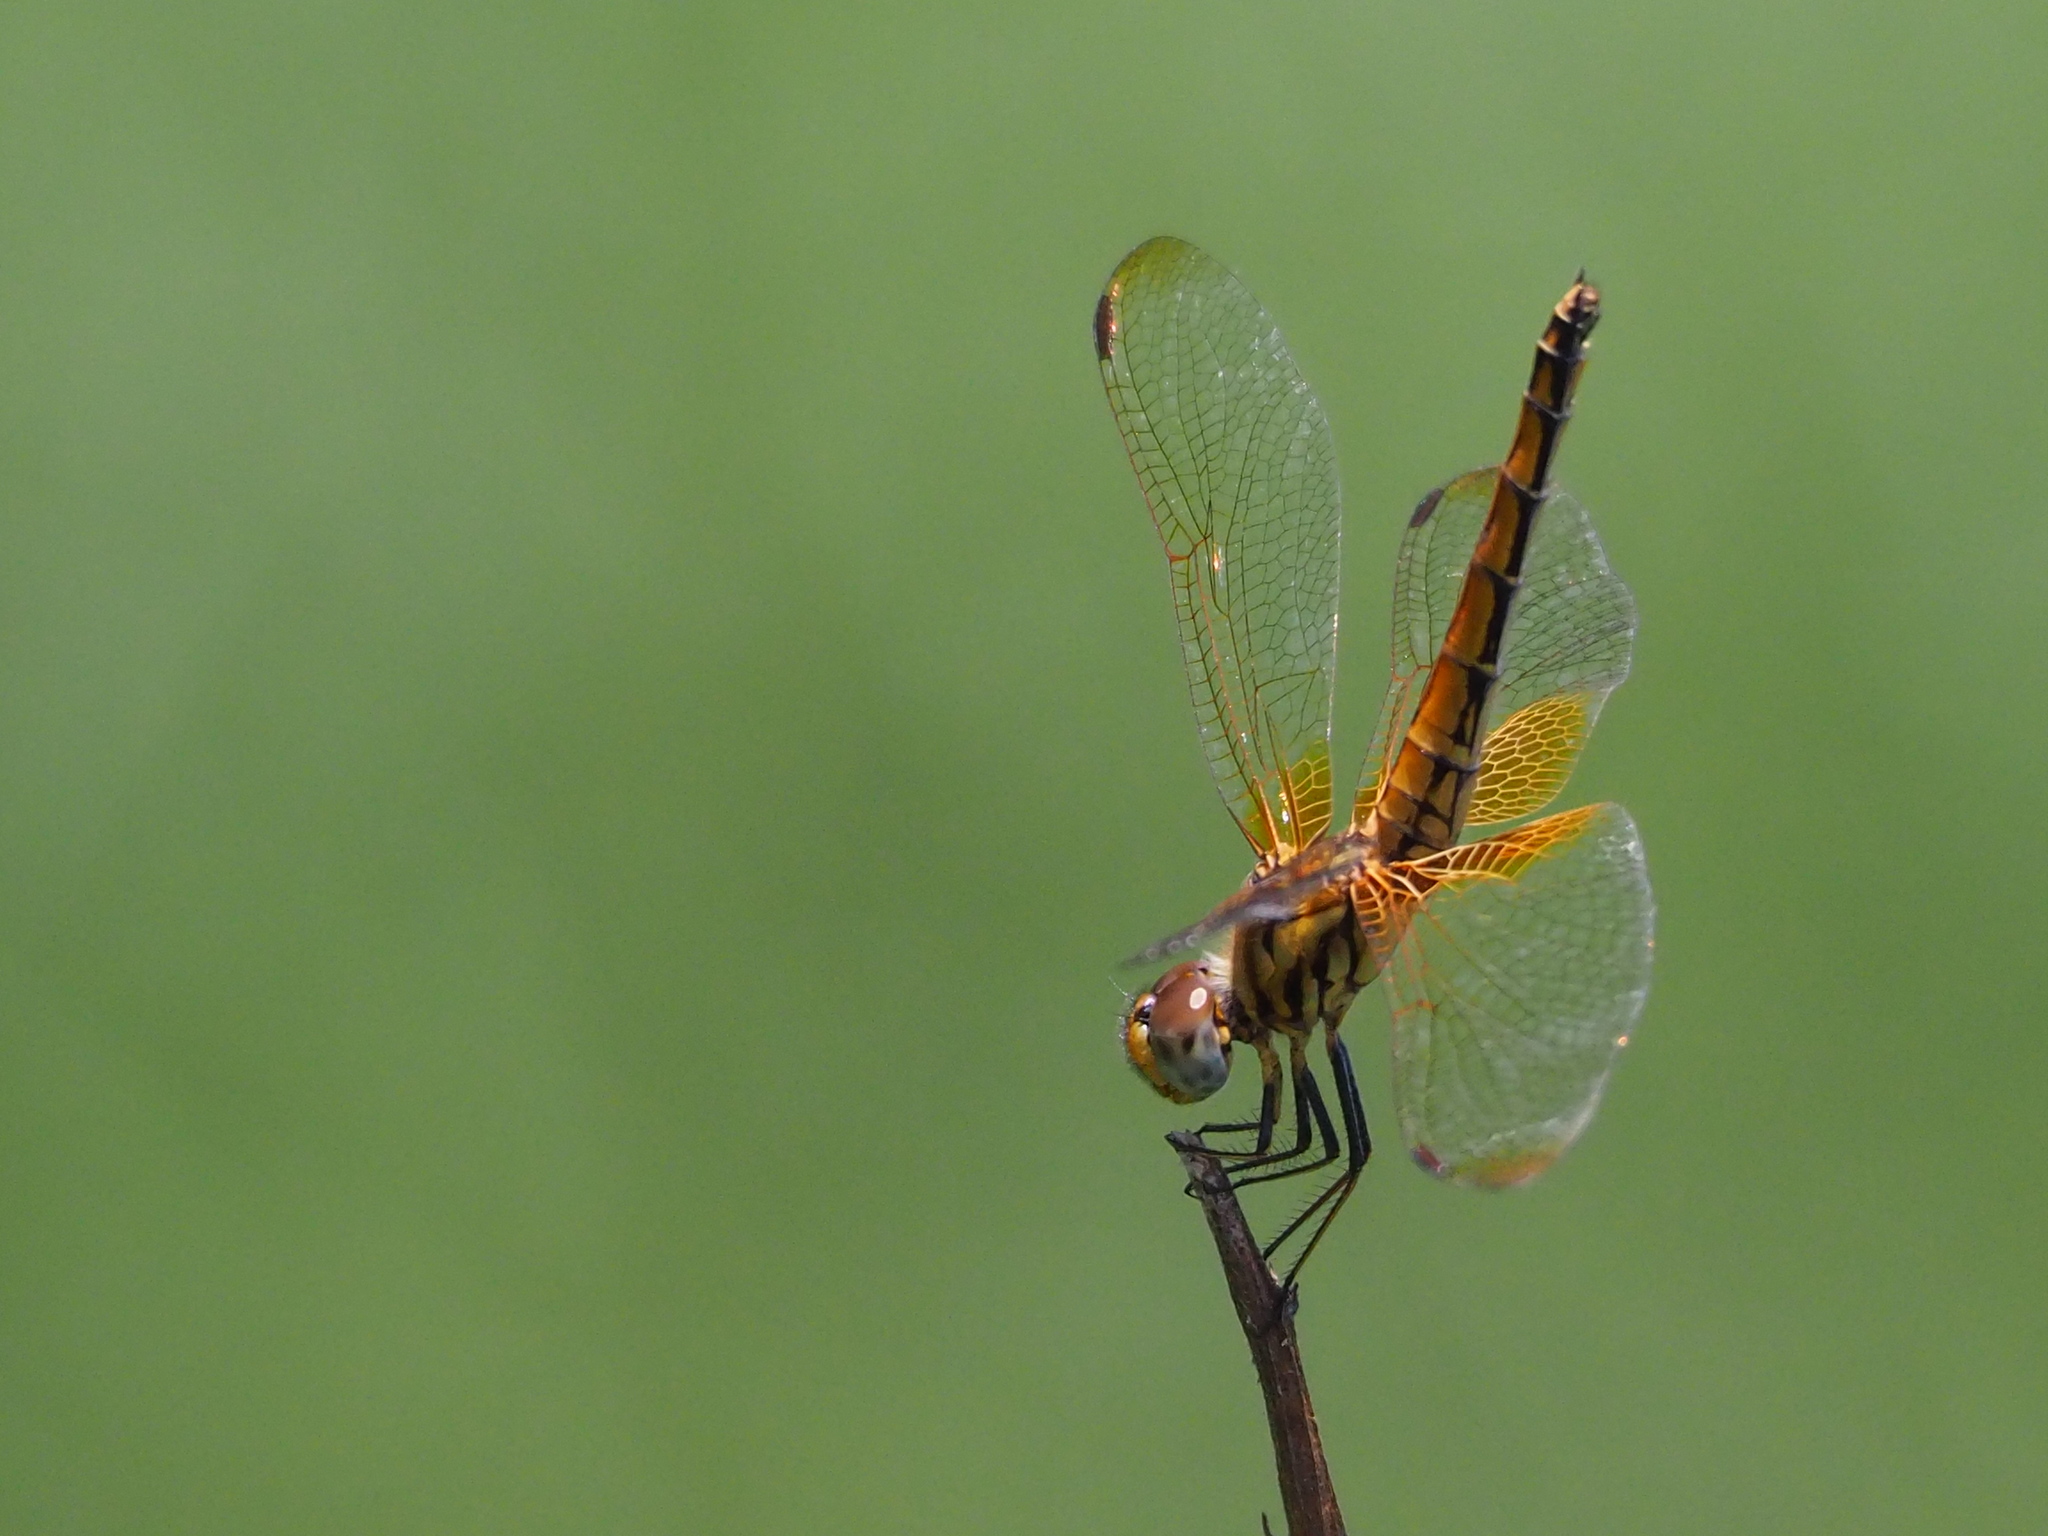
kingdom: Animalia
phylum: Arthropoda
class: Insecta
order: Odonata
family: Libellulidae
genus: Trithemis
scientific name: Trithemis aurora
